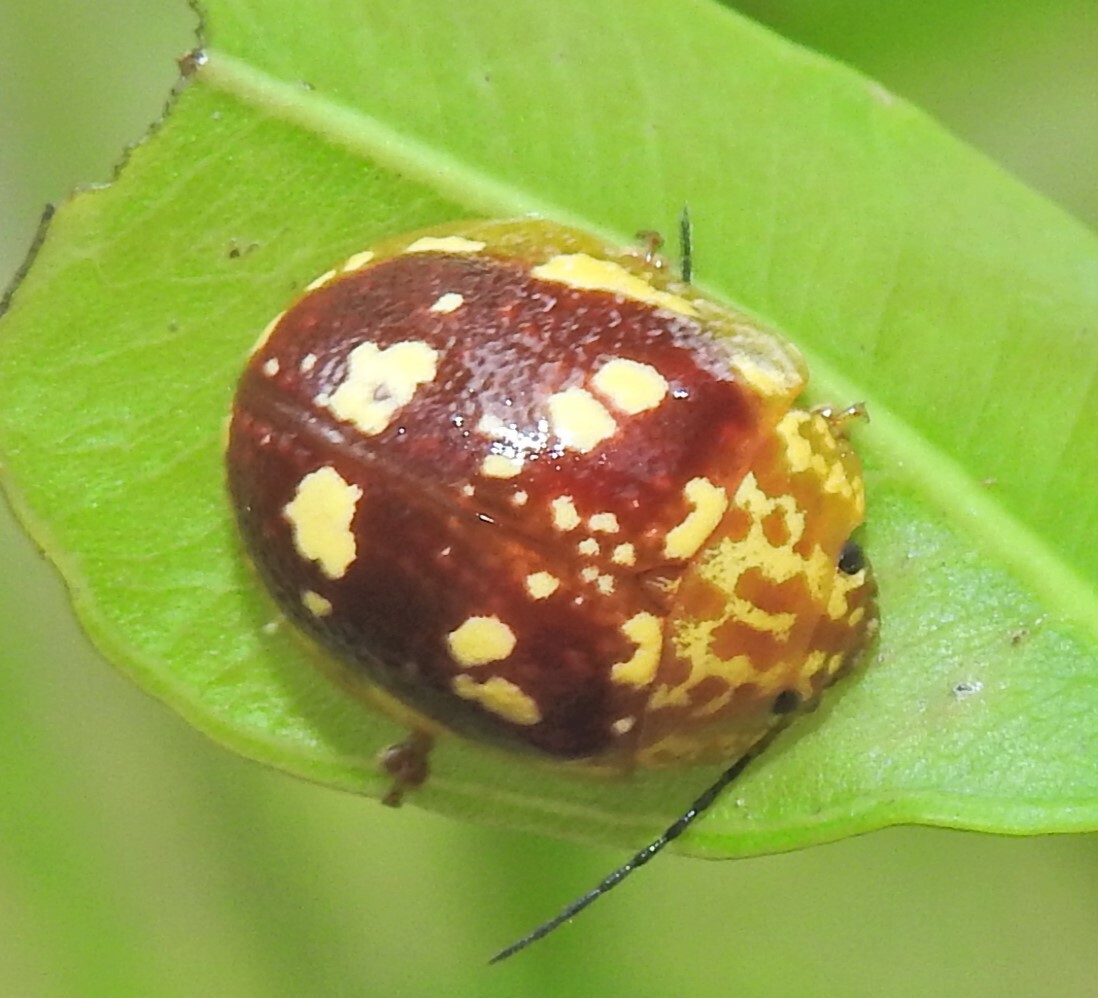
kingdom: Animalia
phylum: Arthropoda
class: Insecta
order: Coleoptera
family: Chrysomelidae
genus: Paropsis
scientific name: Paropsis maculata
